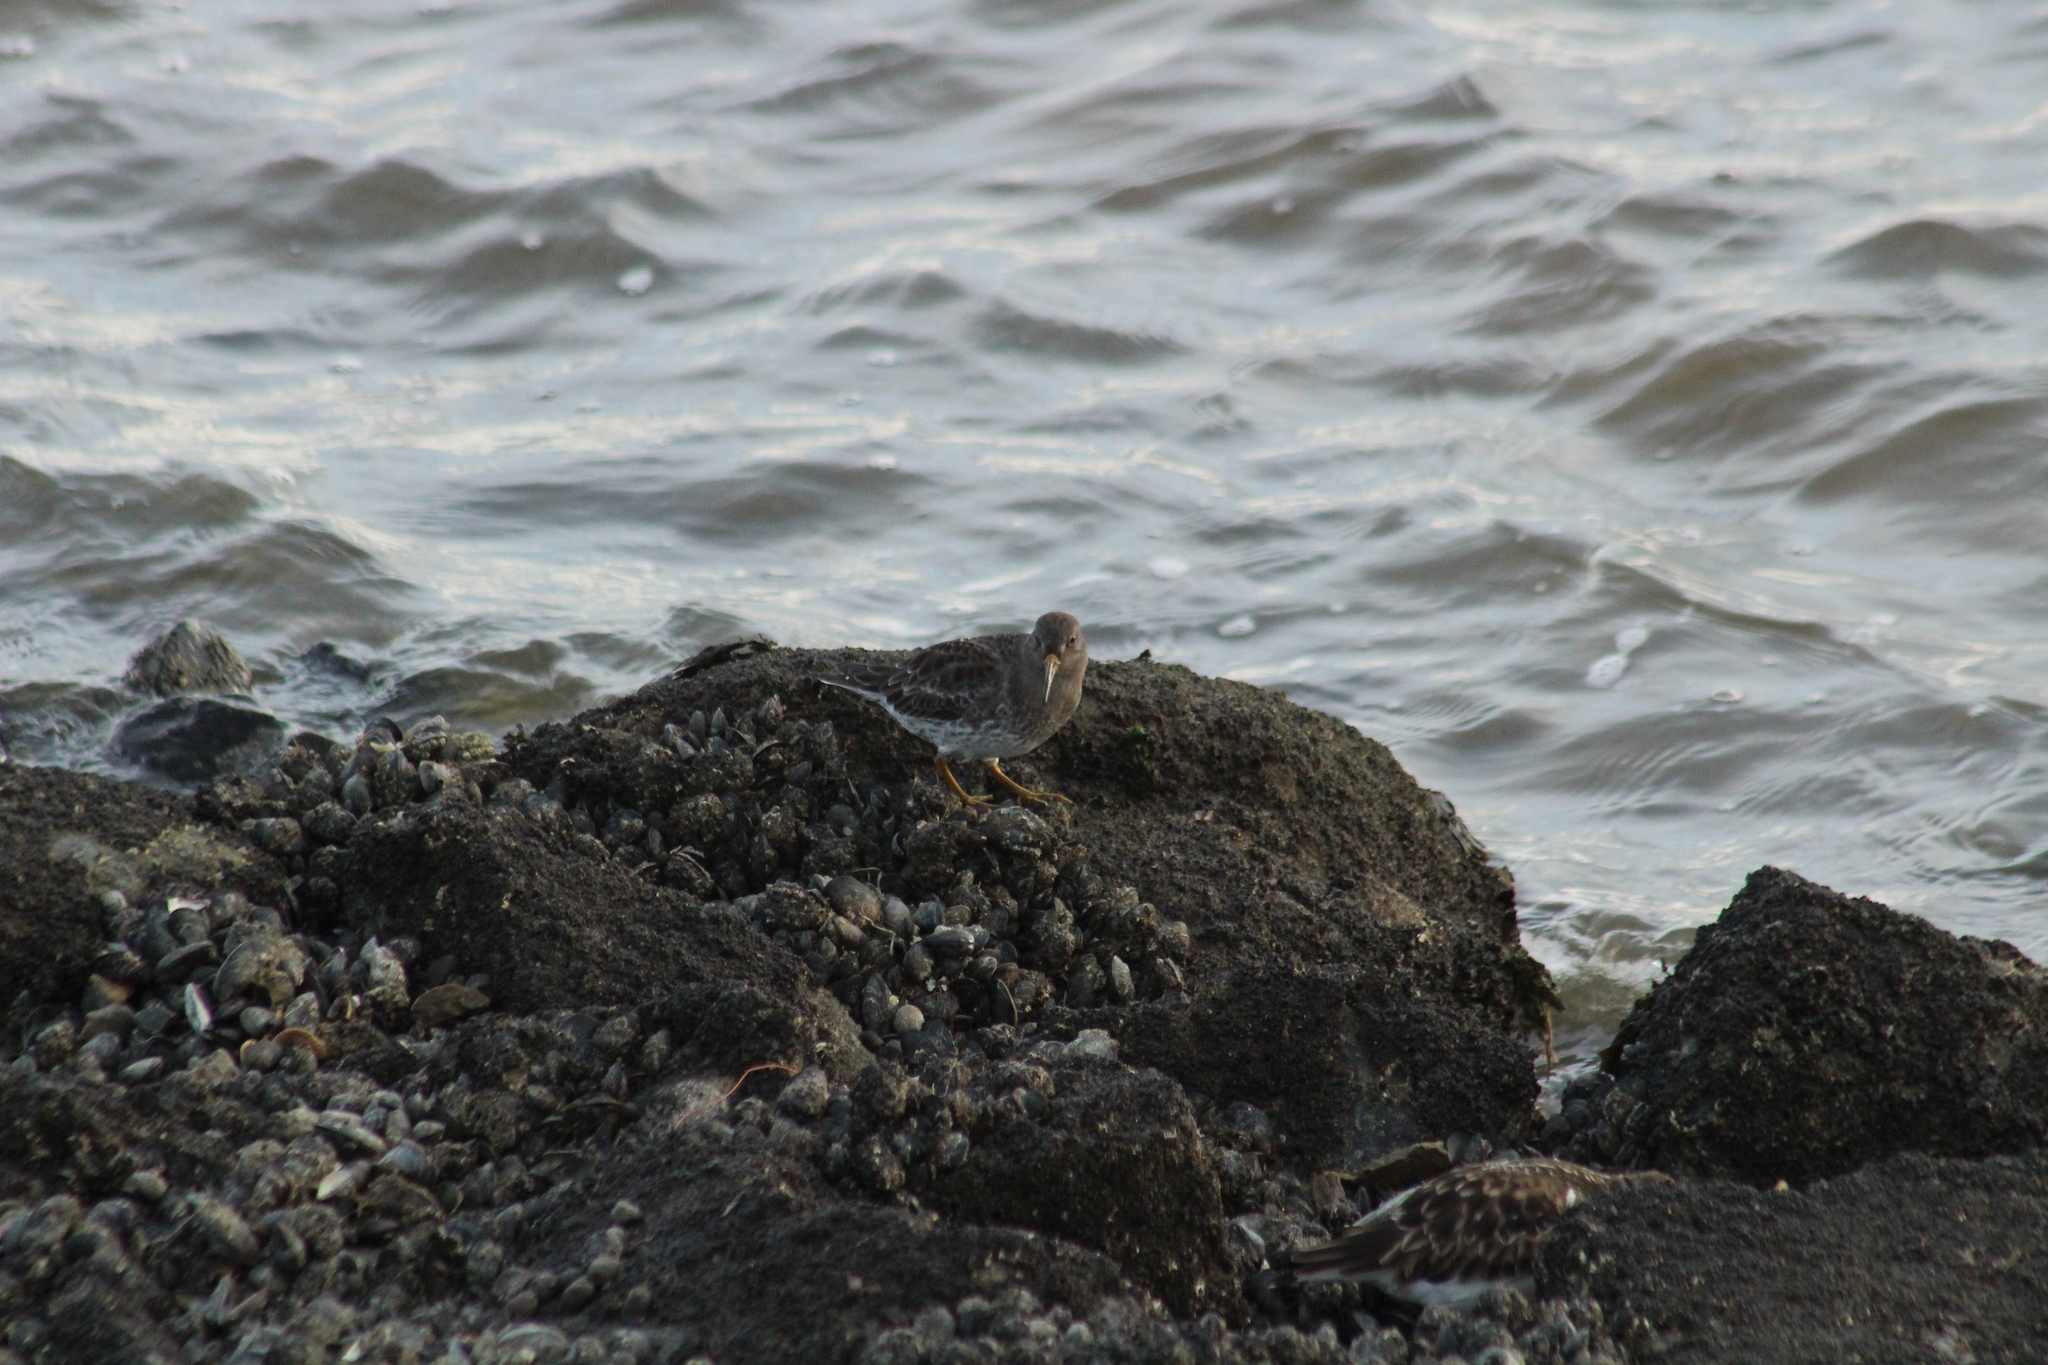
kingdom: Animalia
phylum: Chordata
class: Aves
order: Charadriiformes
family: Scolopacidae
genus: Calidris
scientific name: Calidris maritima
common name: Purple sandpiper
